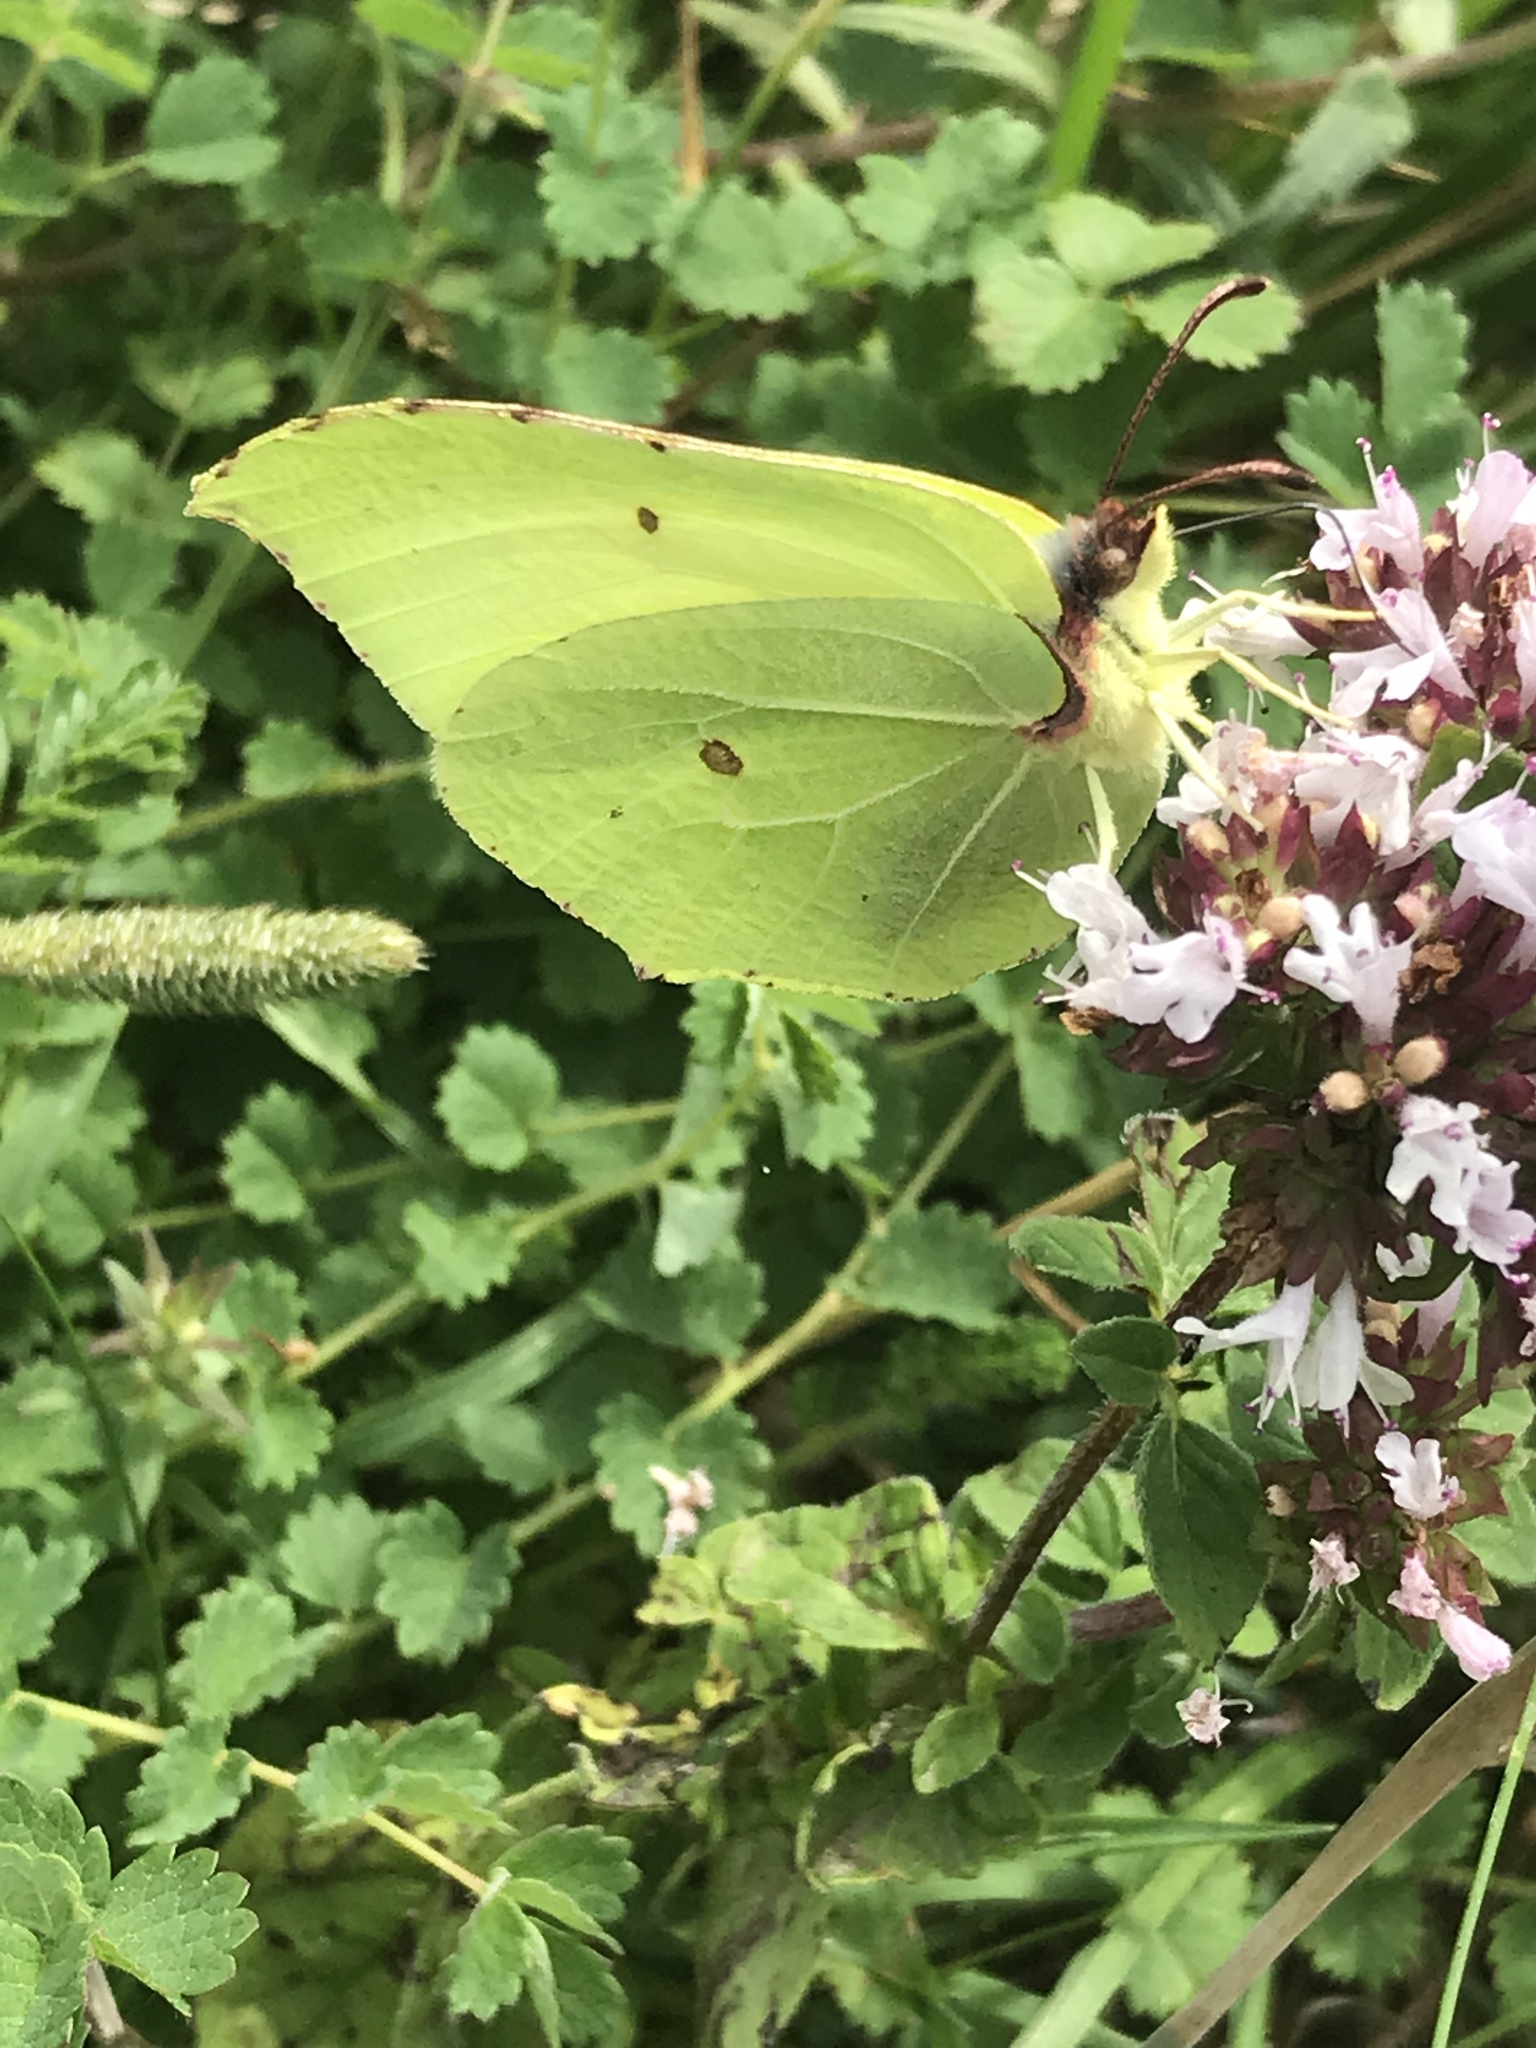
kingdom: Animalia
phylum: Arthropoda
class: Insecta
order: Lepidoptera
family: Pieridae
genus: Gonepteryx
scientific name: Gonepteryx rhamni
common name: Brimstone
